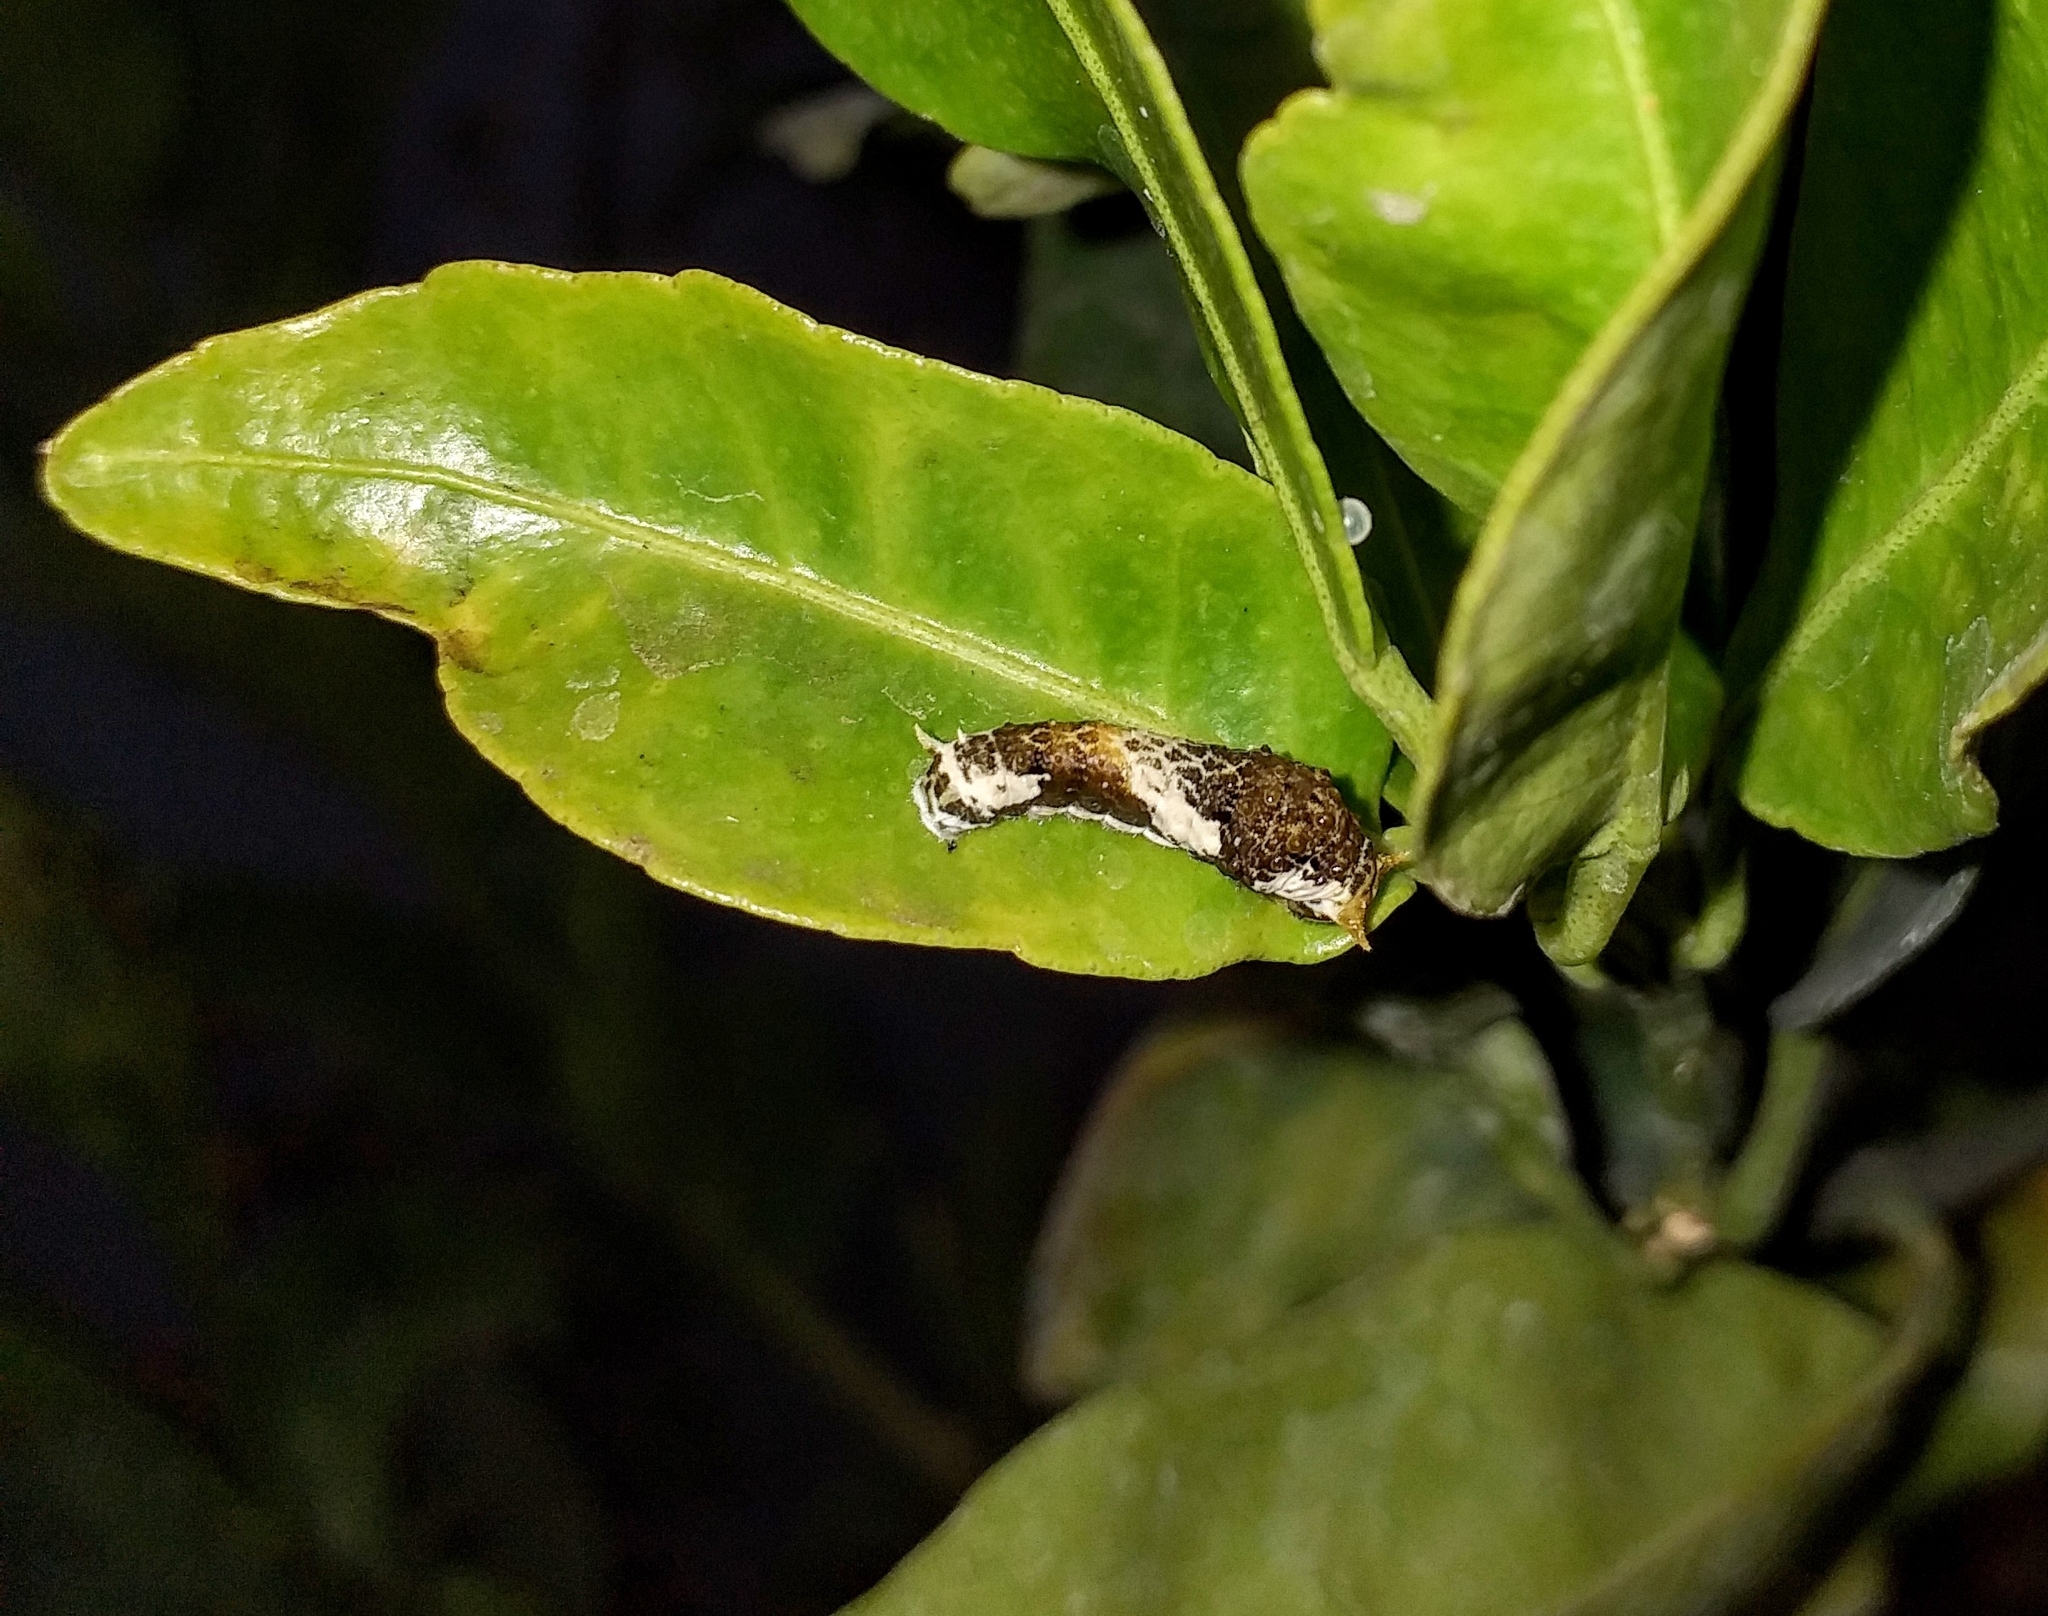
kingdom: Animalia
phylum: Arthropoda
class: Insecta
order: Lepidoptera
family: Papilionidae
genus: Papilio
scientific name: Papilio polytes
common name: Common mormon
